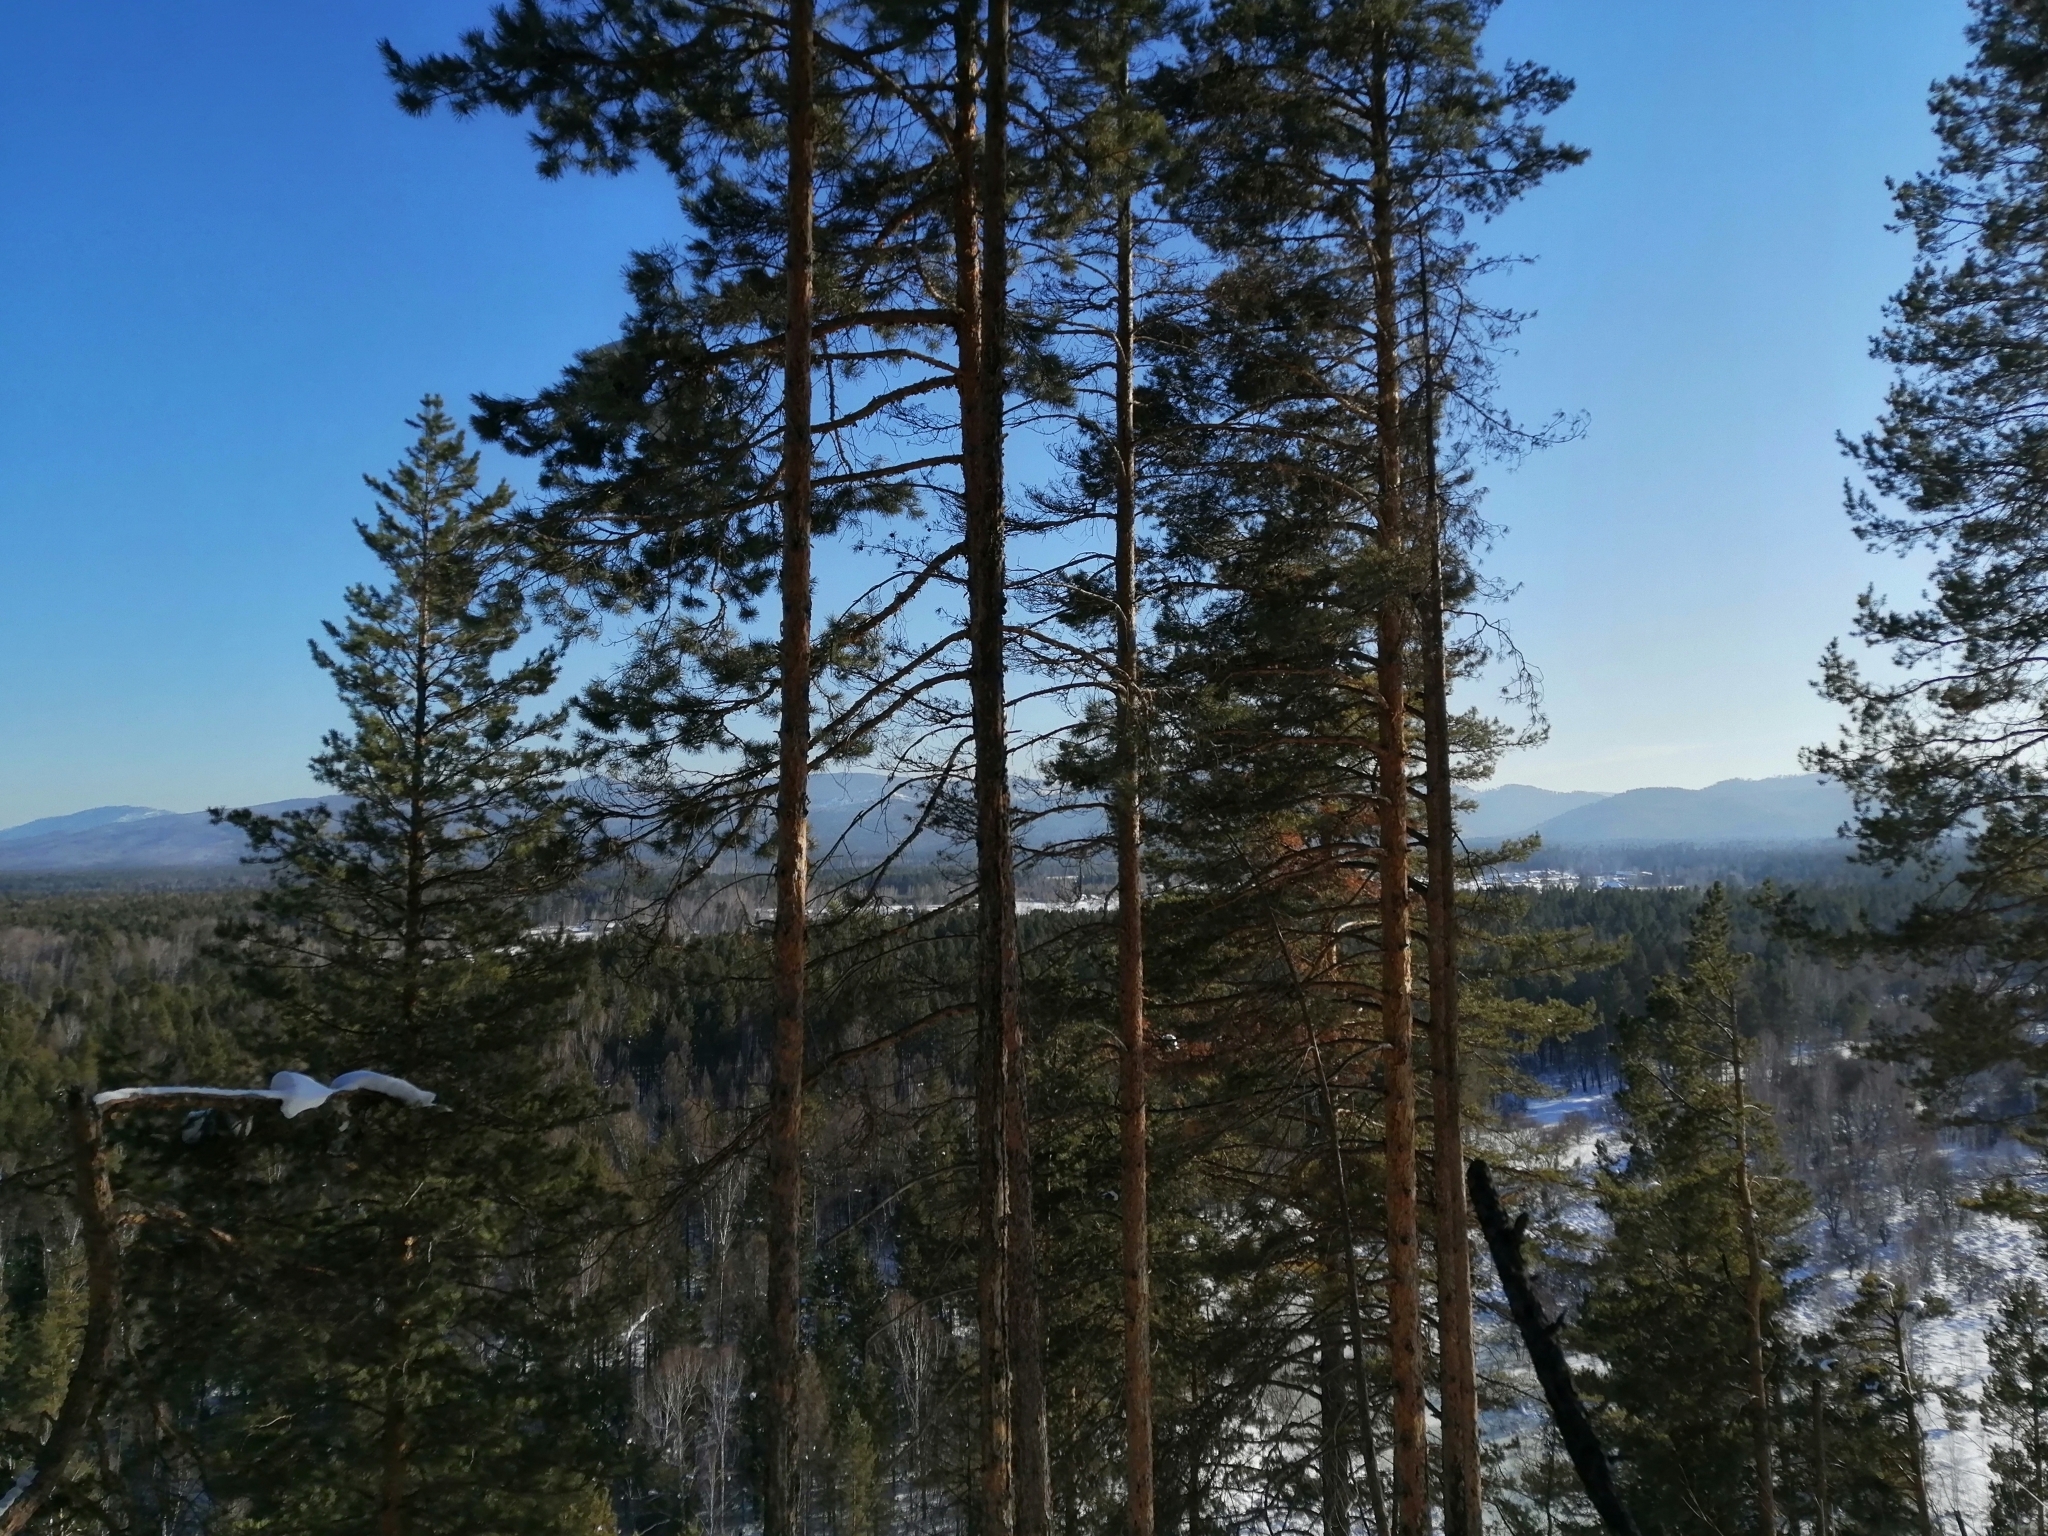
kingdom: Plantae
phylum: Tracheophyta
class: Pinopsida
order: Pinales
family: Pinaceae
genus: Pinus
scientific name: Pinus sylvestris
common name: Scots pine
